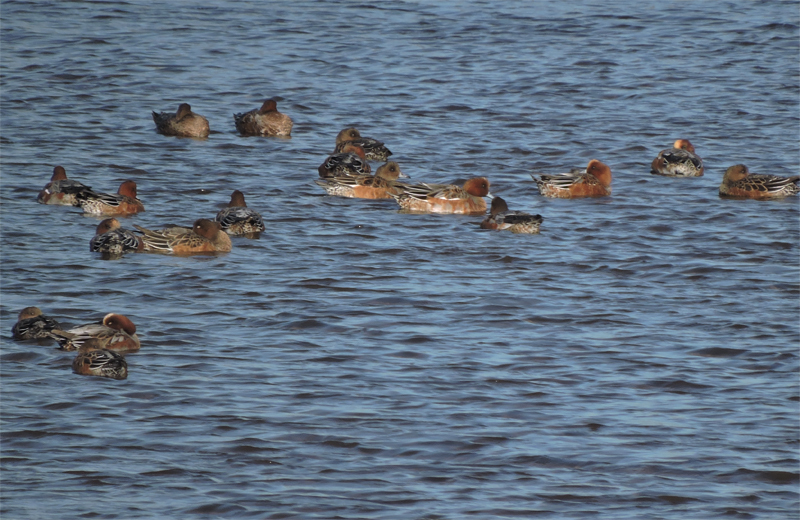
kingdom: Animalia
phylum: Chordata
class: Aves
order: Anseriformes
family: Anatidae
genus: Mareca
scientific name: Mareca penelope
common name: Eurasian wigeon
